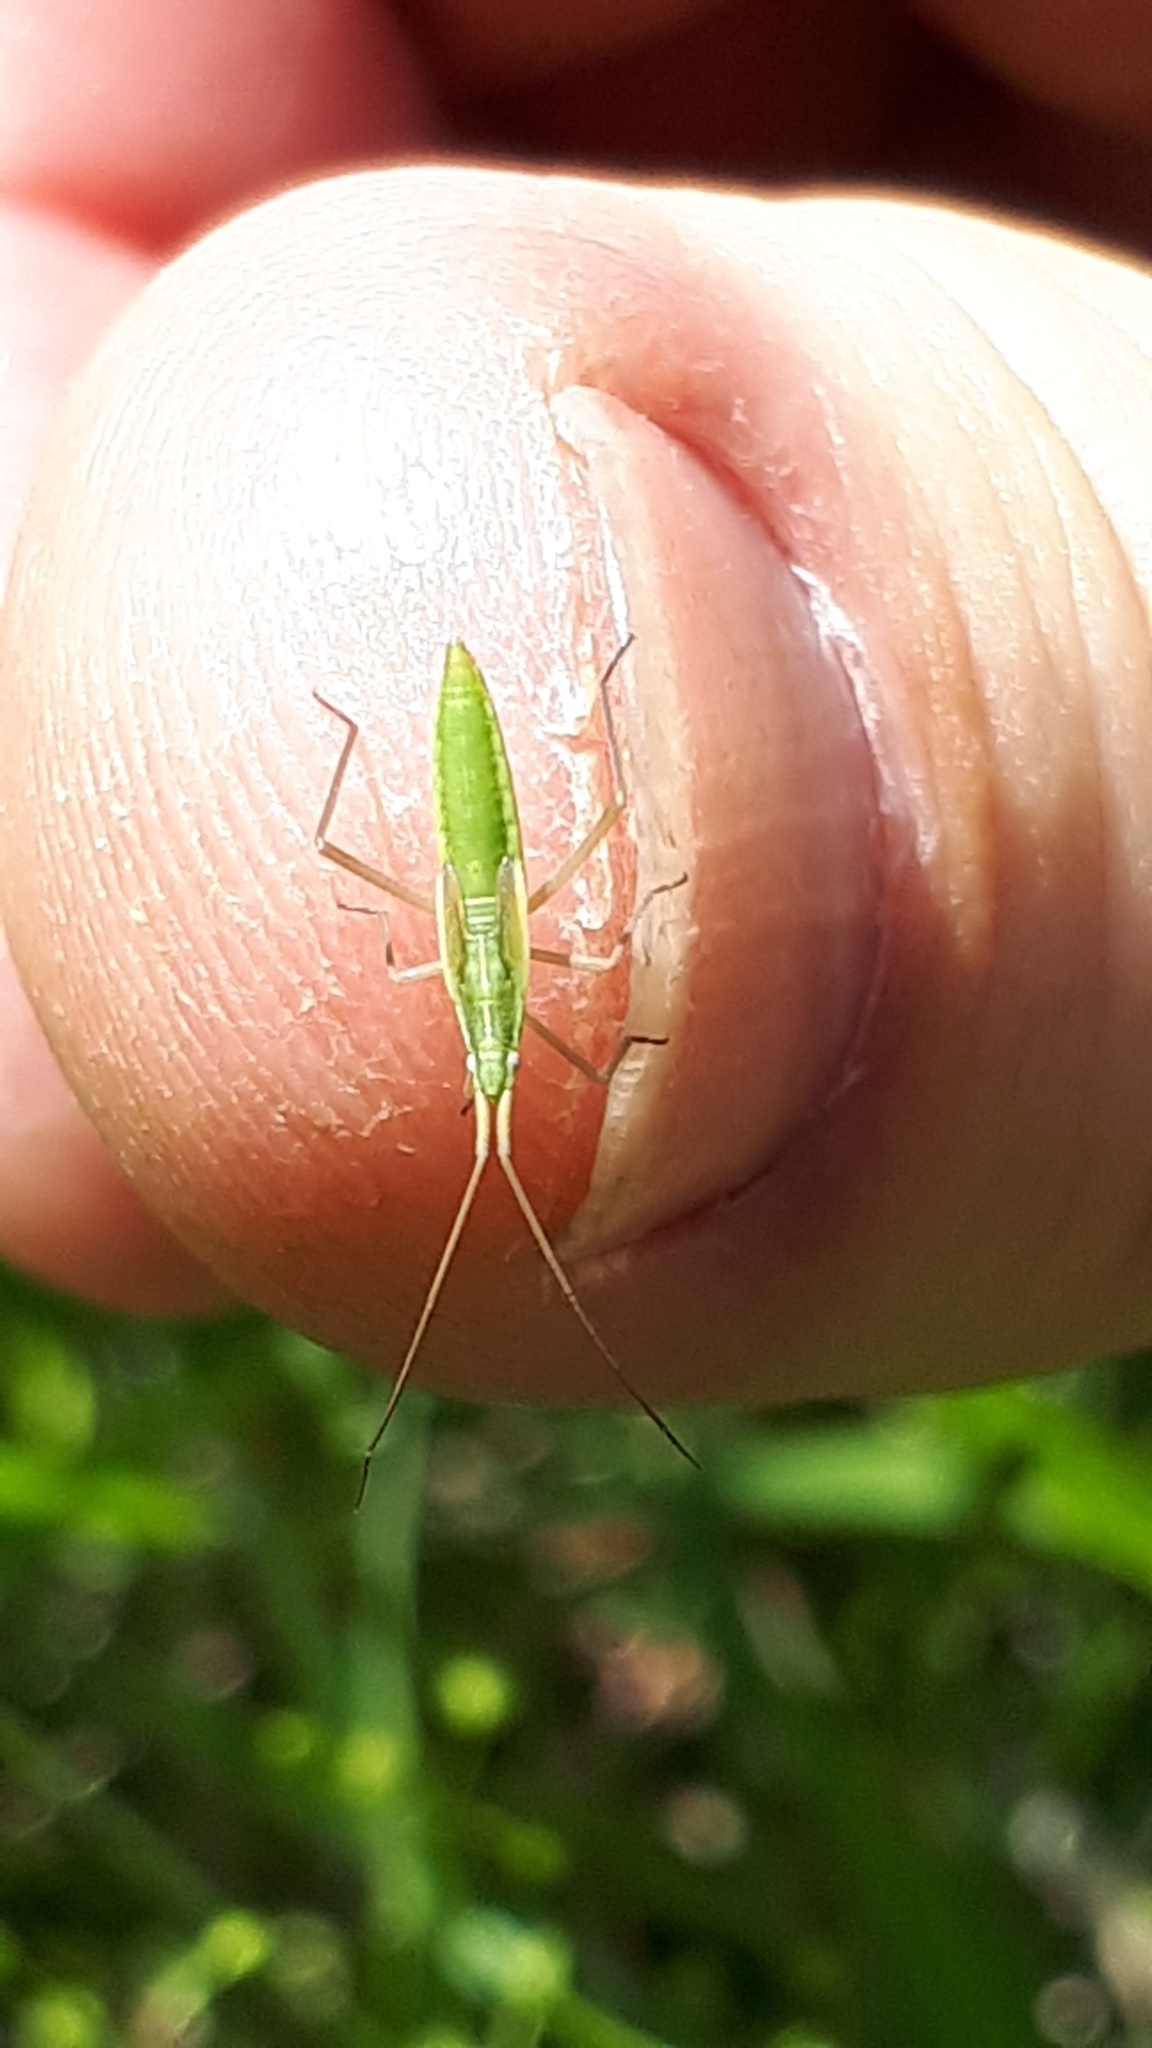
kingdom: Animalia
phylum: Arthropoda
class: Insecta
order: Hemiptera
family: Miridae
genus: Megaloceroea
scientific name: Megaloceroea recticornis
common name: Plant bug
